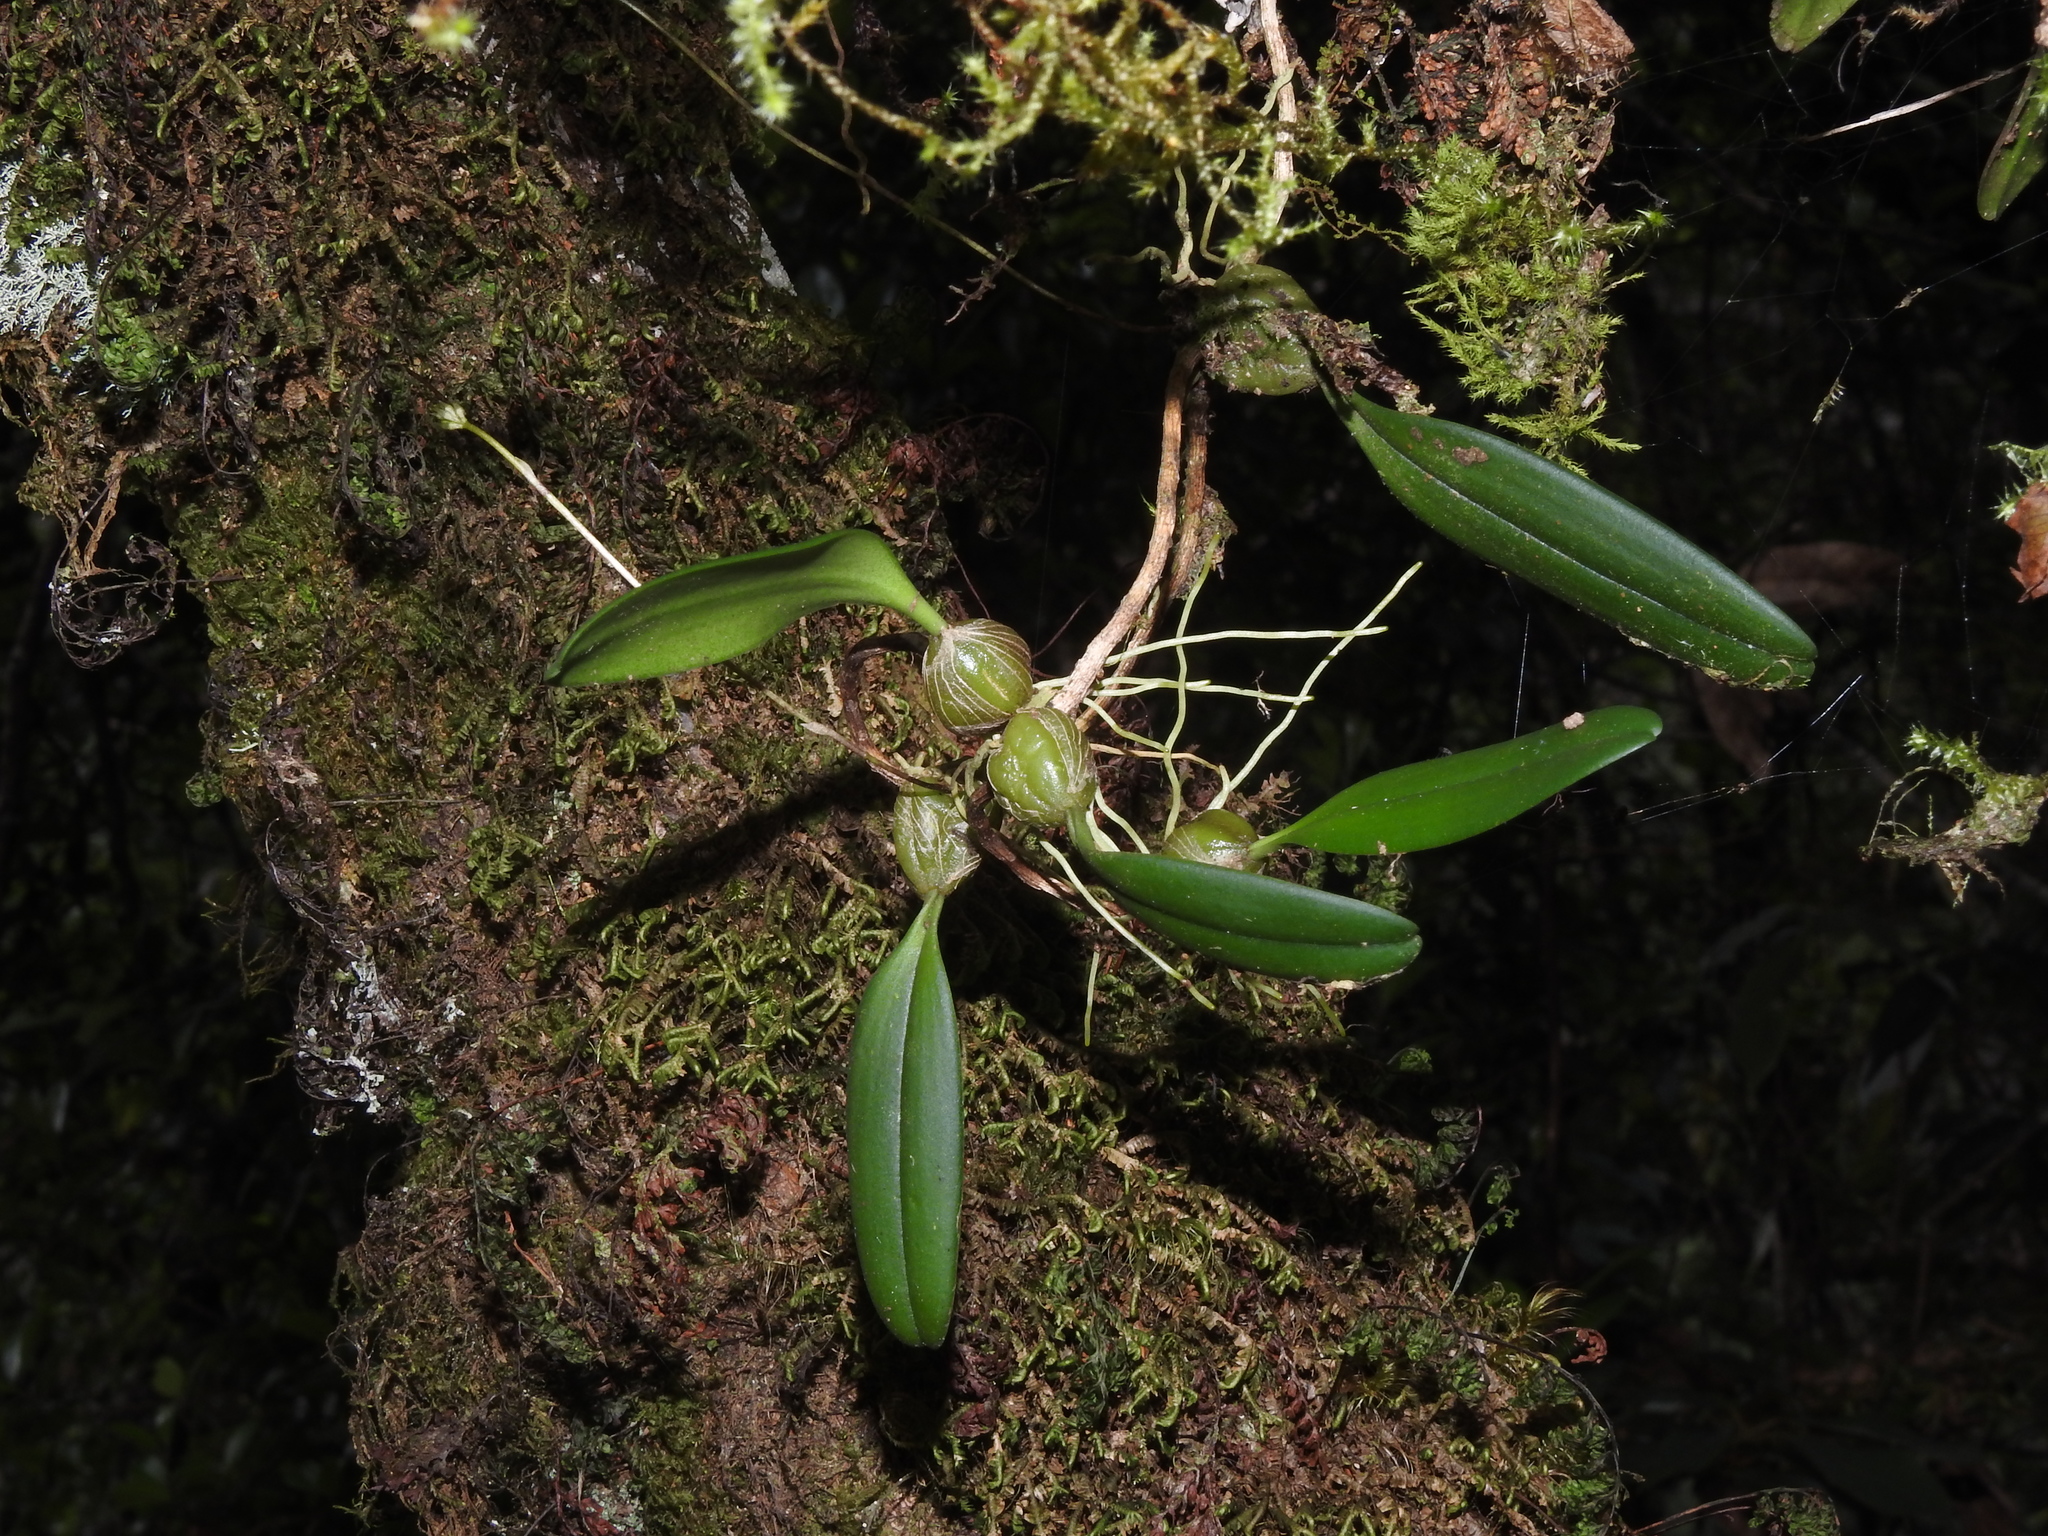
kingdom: Plantae
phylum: Tracheophyta
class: Liliopsida
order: Asparagales
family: Orchidaceae
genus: Bulbophyllum
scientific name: Bulbophyllum melanoglossum
